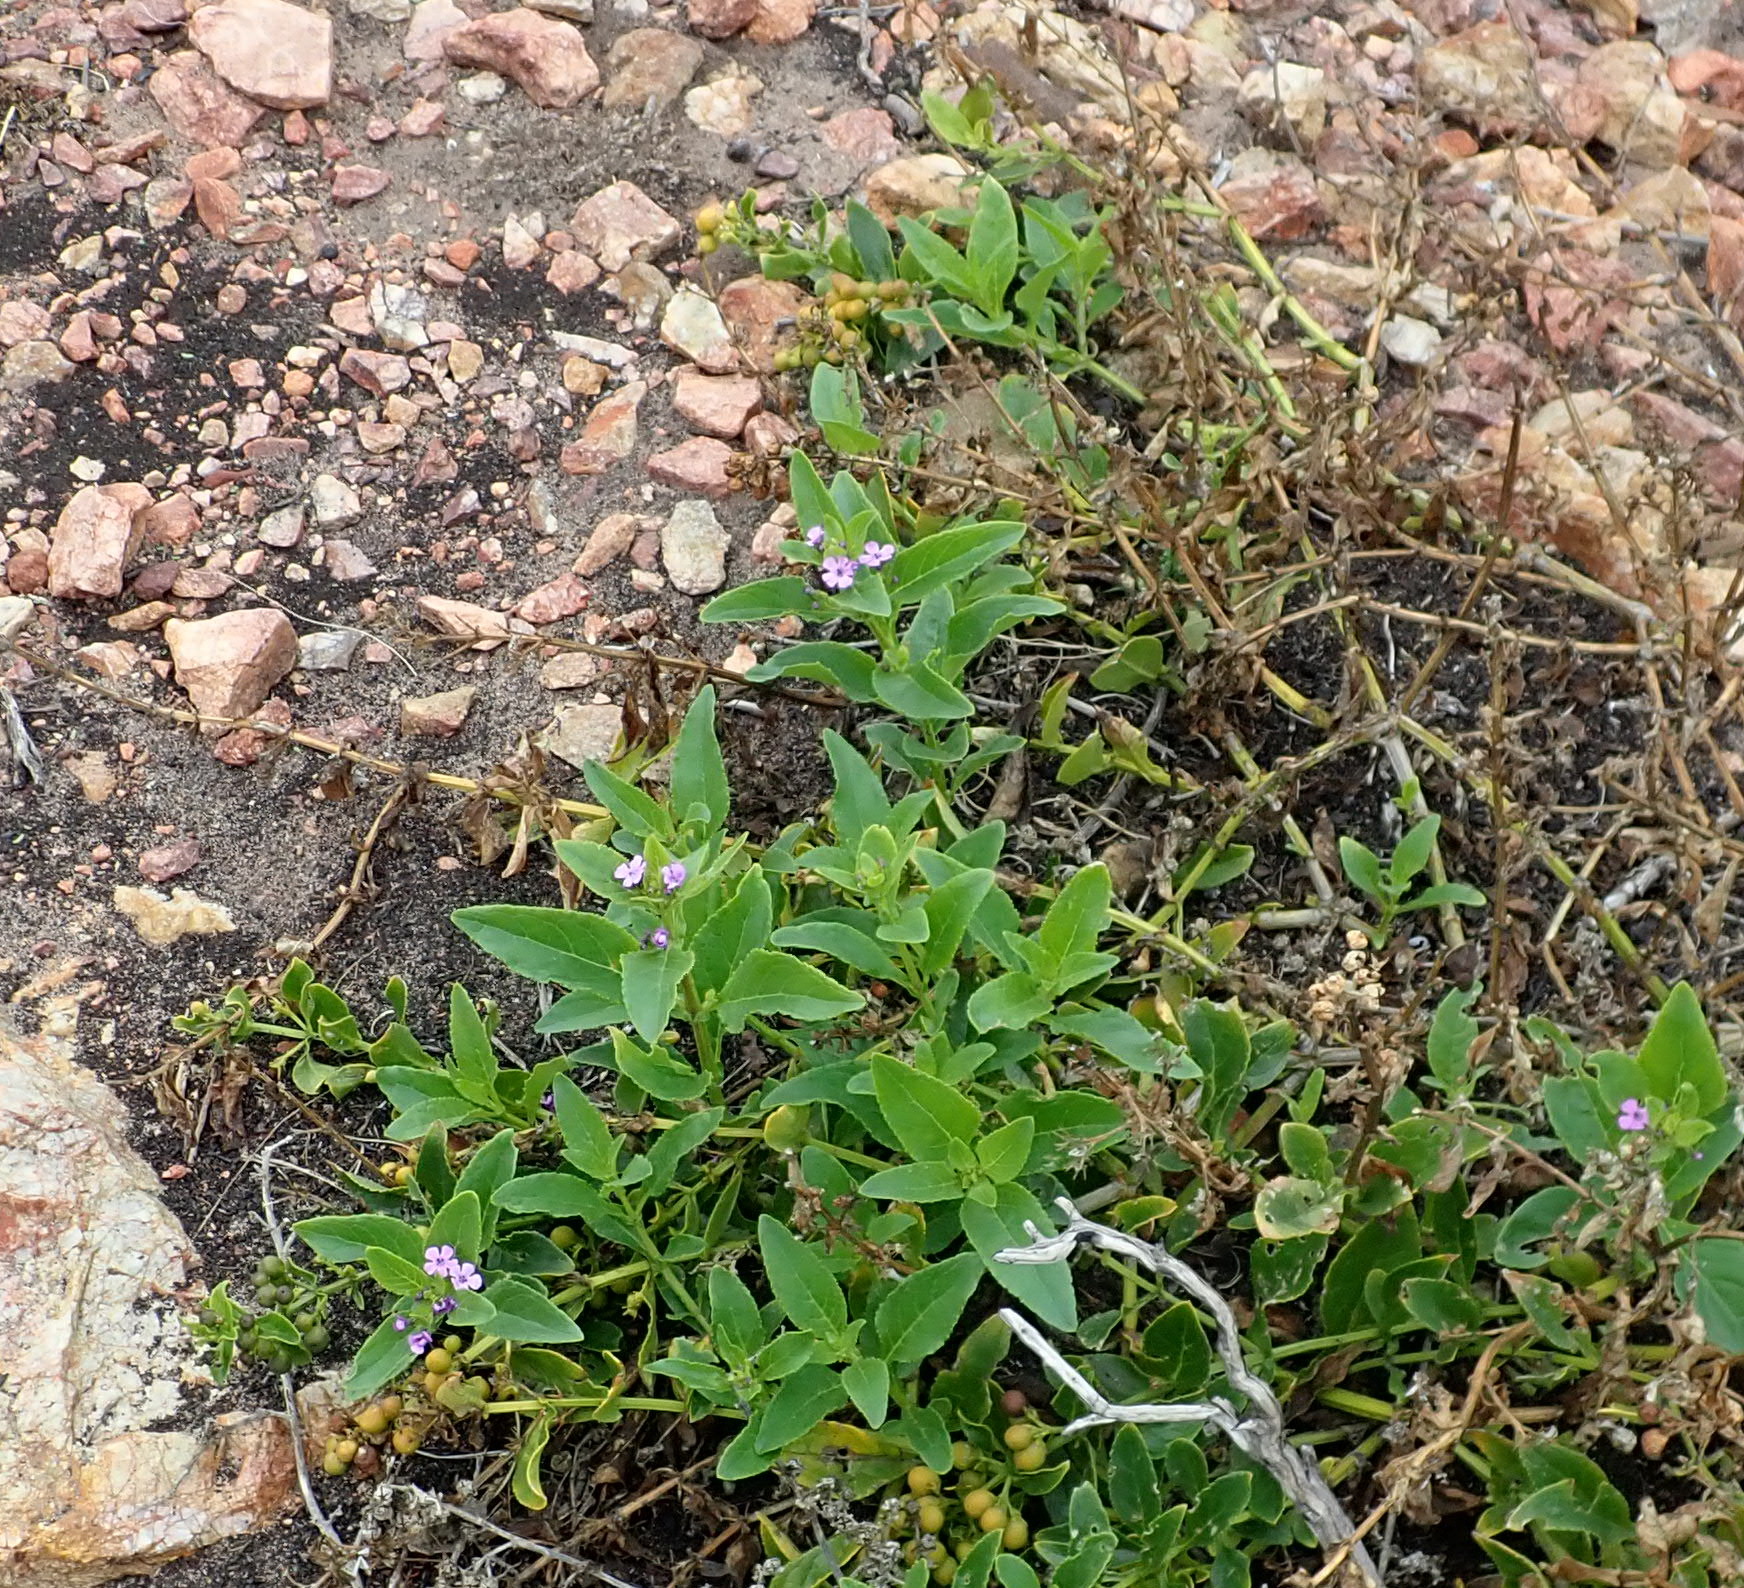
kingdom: Plantae
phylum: Tracheophyta
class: Magnoliopsida
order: Lamiales
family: Scrophulariaceae
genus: Teedia
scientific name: Teedia lucida
